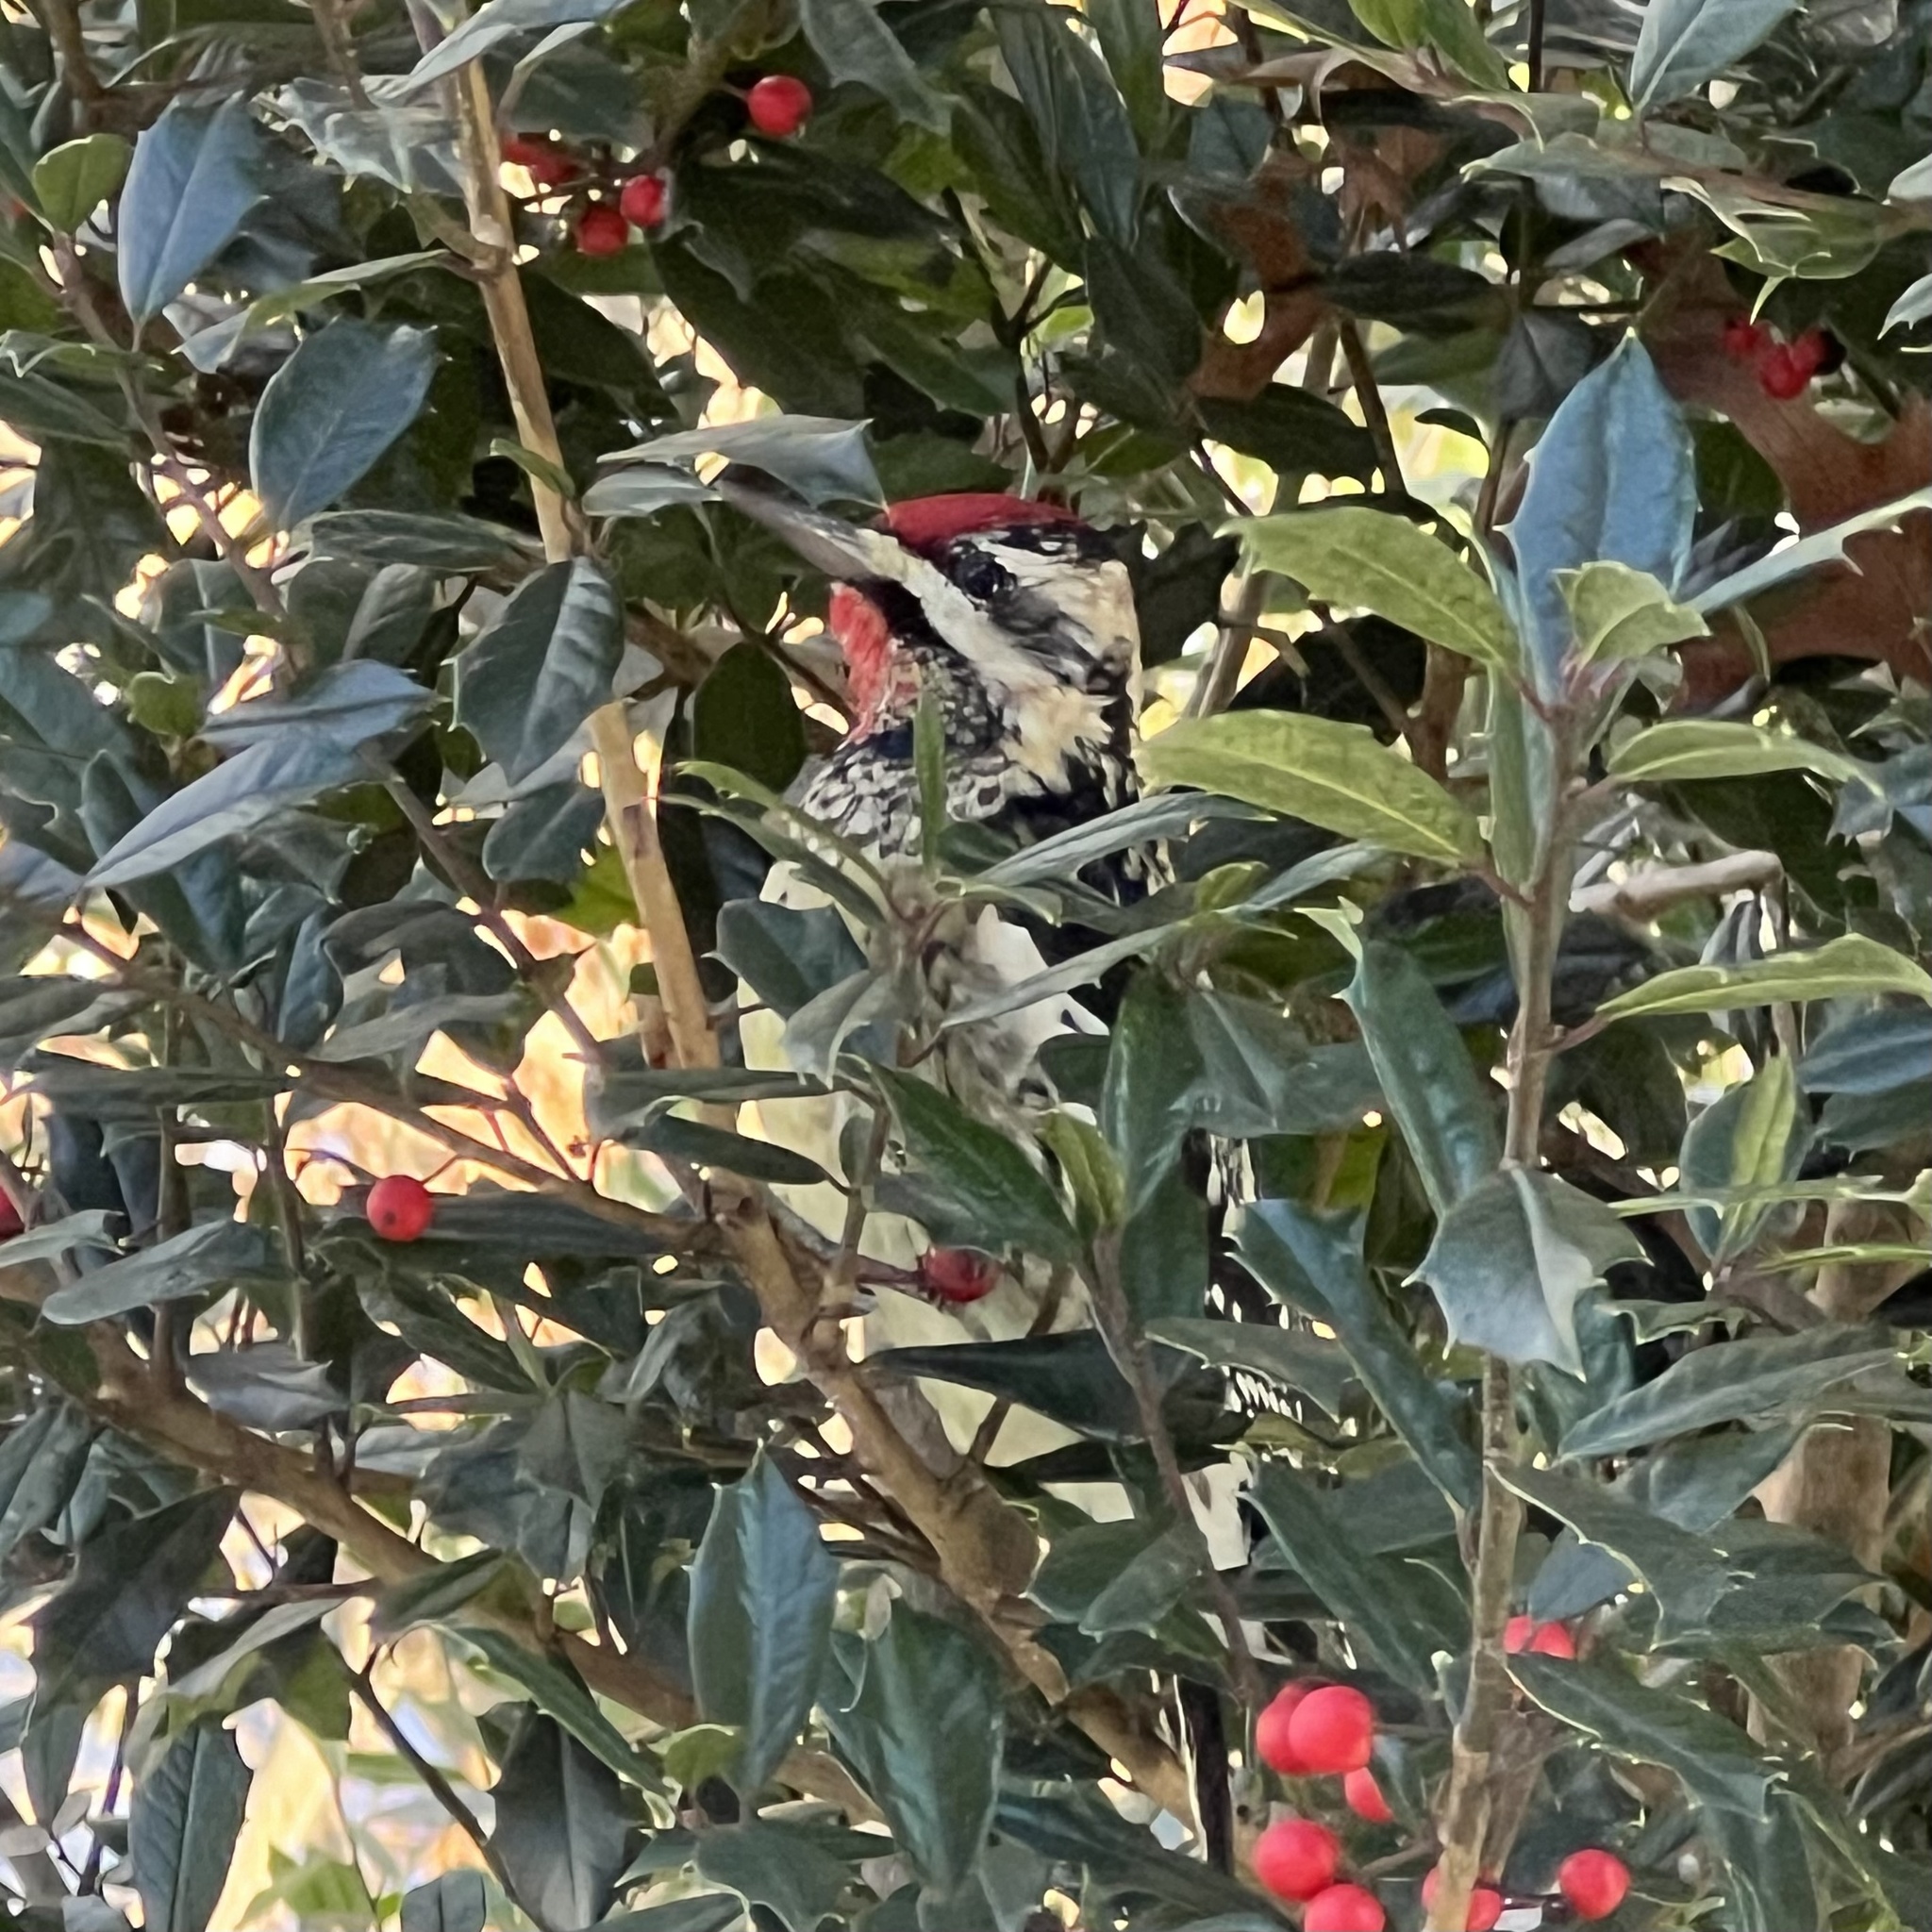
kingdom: Animalia
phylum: Chordata
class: Aves
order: Piciformes
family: Picidae
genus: Sphyrapicus
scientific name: Sphyrapicus varius
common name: Yellow-bellied sapsucker
